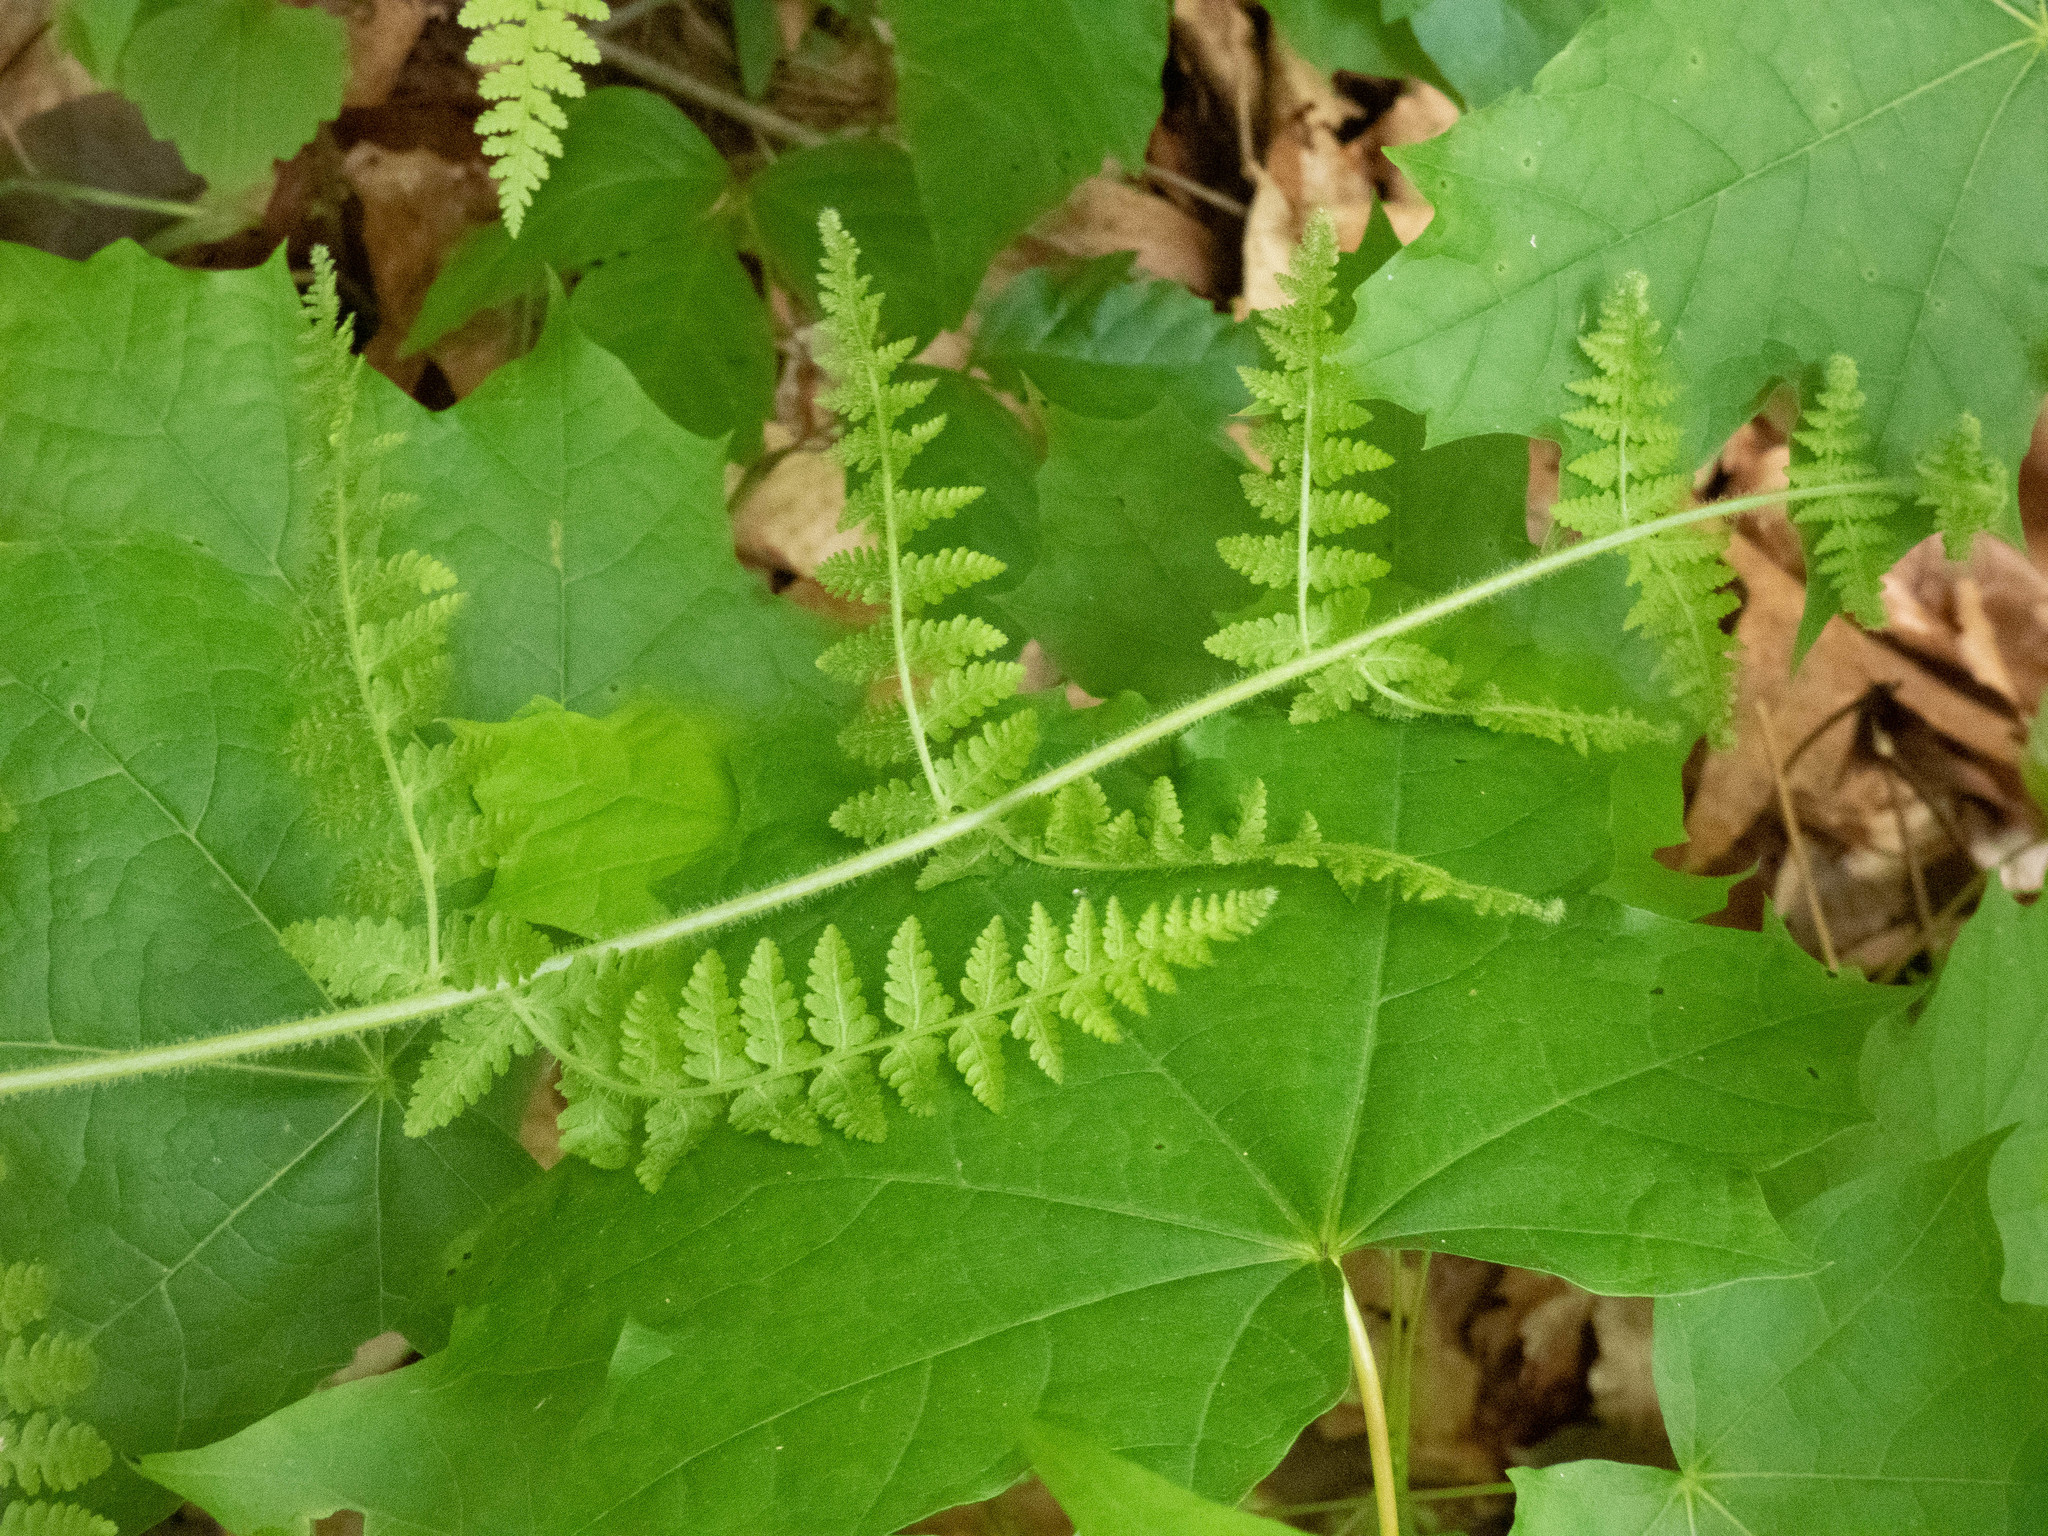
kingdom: Plantae
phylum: Tracheophyta
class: Polypodiopsida
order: Polypodiales
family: Dennstaedtiaceae
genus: Sitobolium
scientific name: Sitobolium punctilobum
